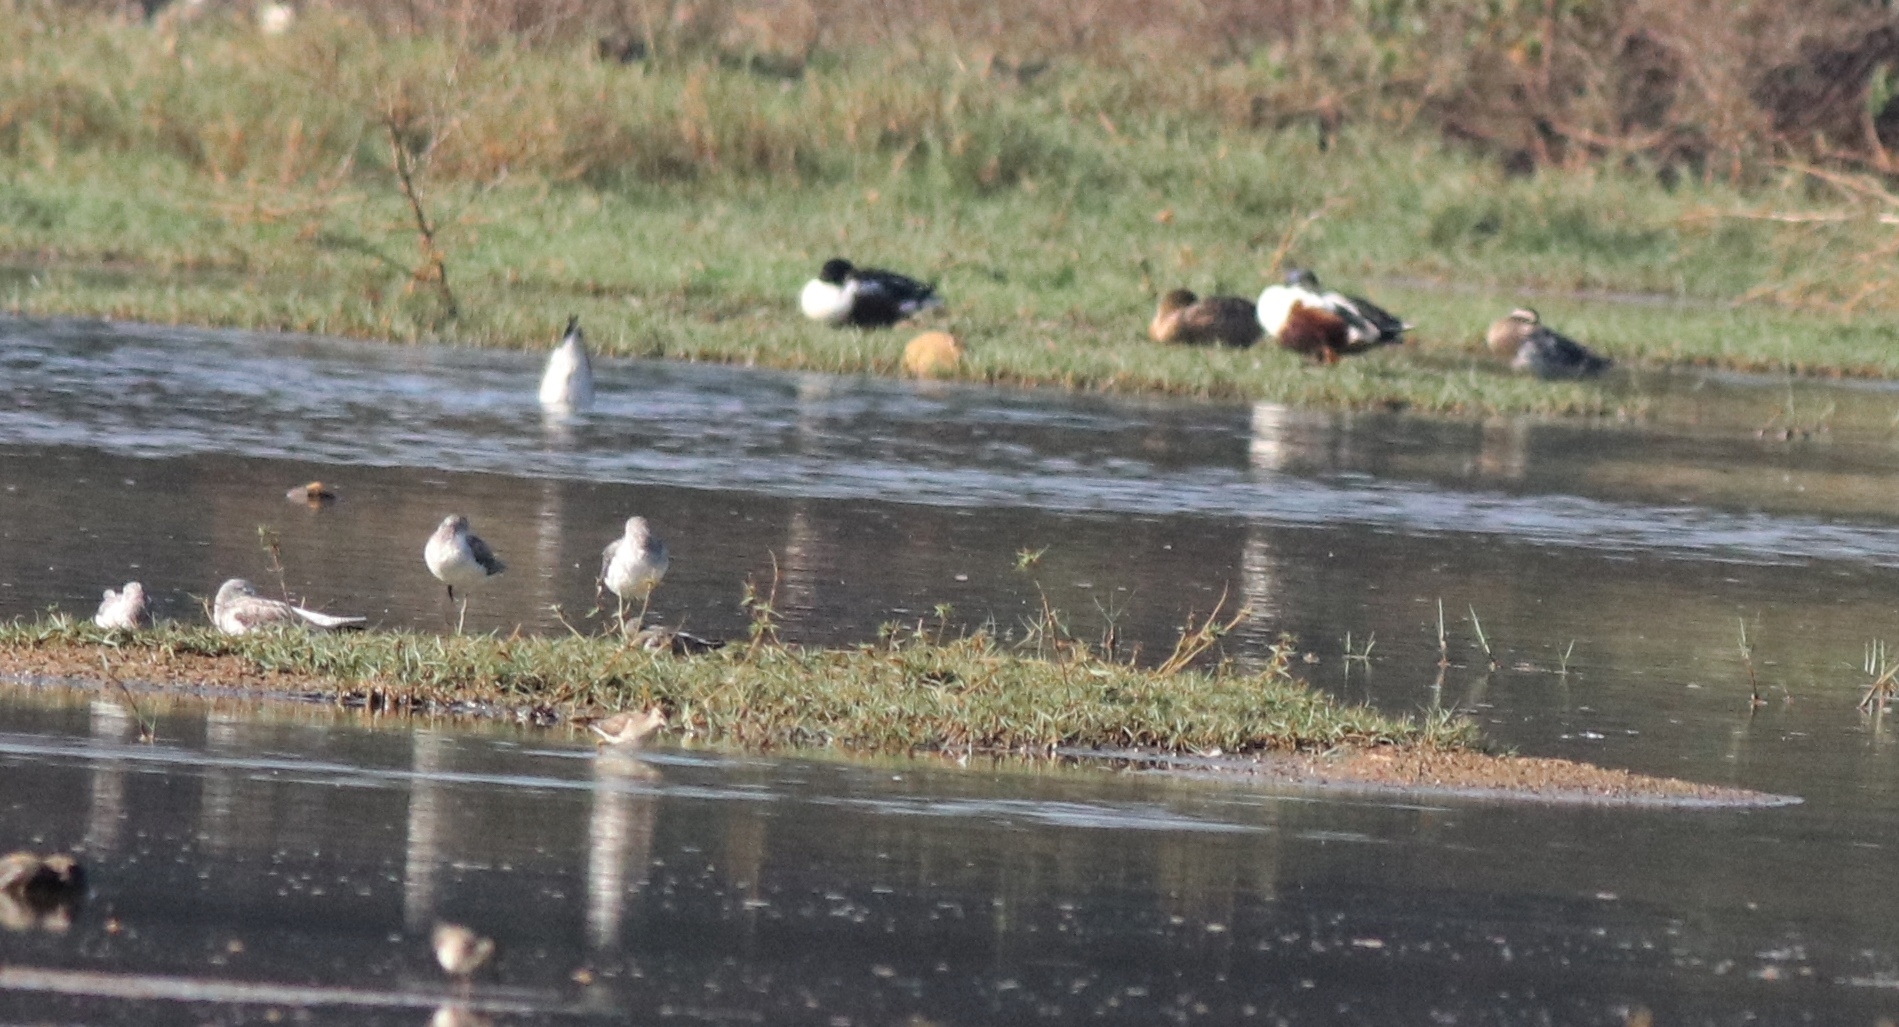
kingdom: Animalia
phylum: Chordata
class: Aves
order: Anseriformes
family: Anatidae
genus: Spatula
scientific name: Spatula clypeata
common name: Northern shoveler
